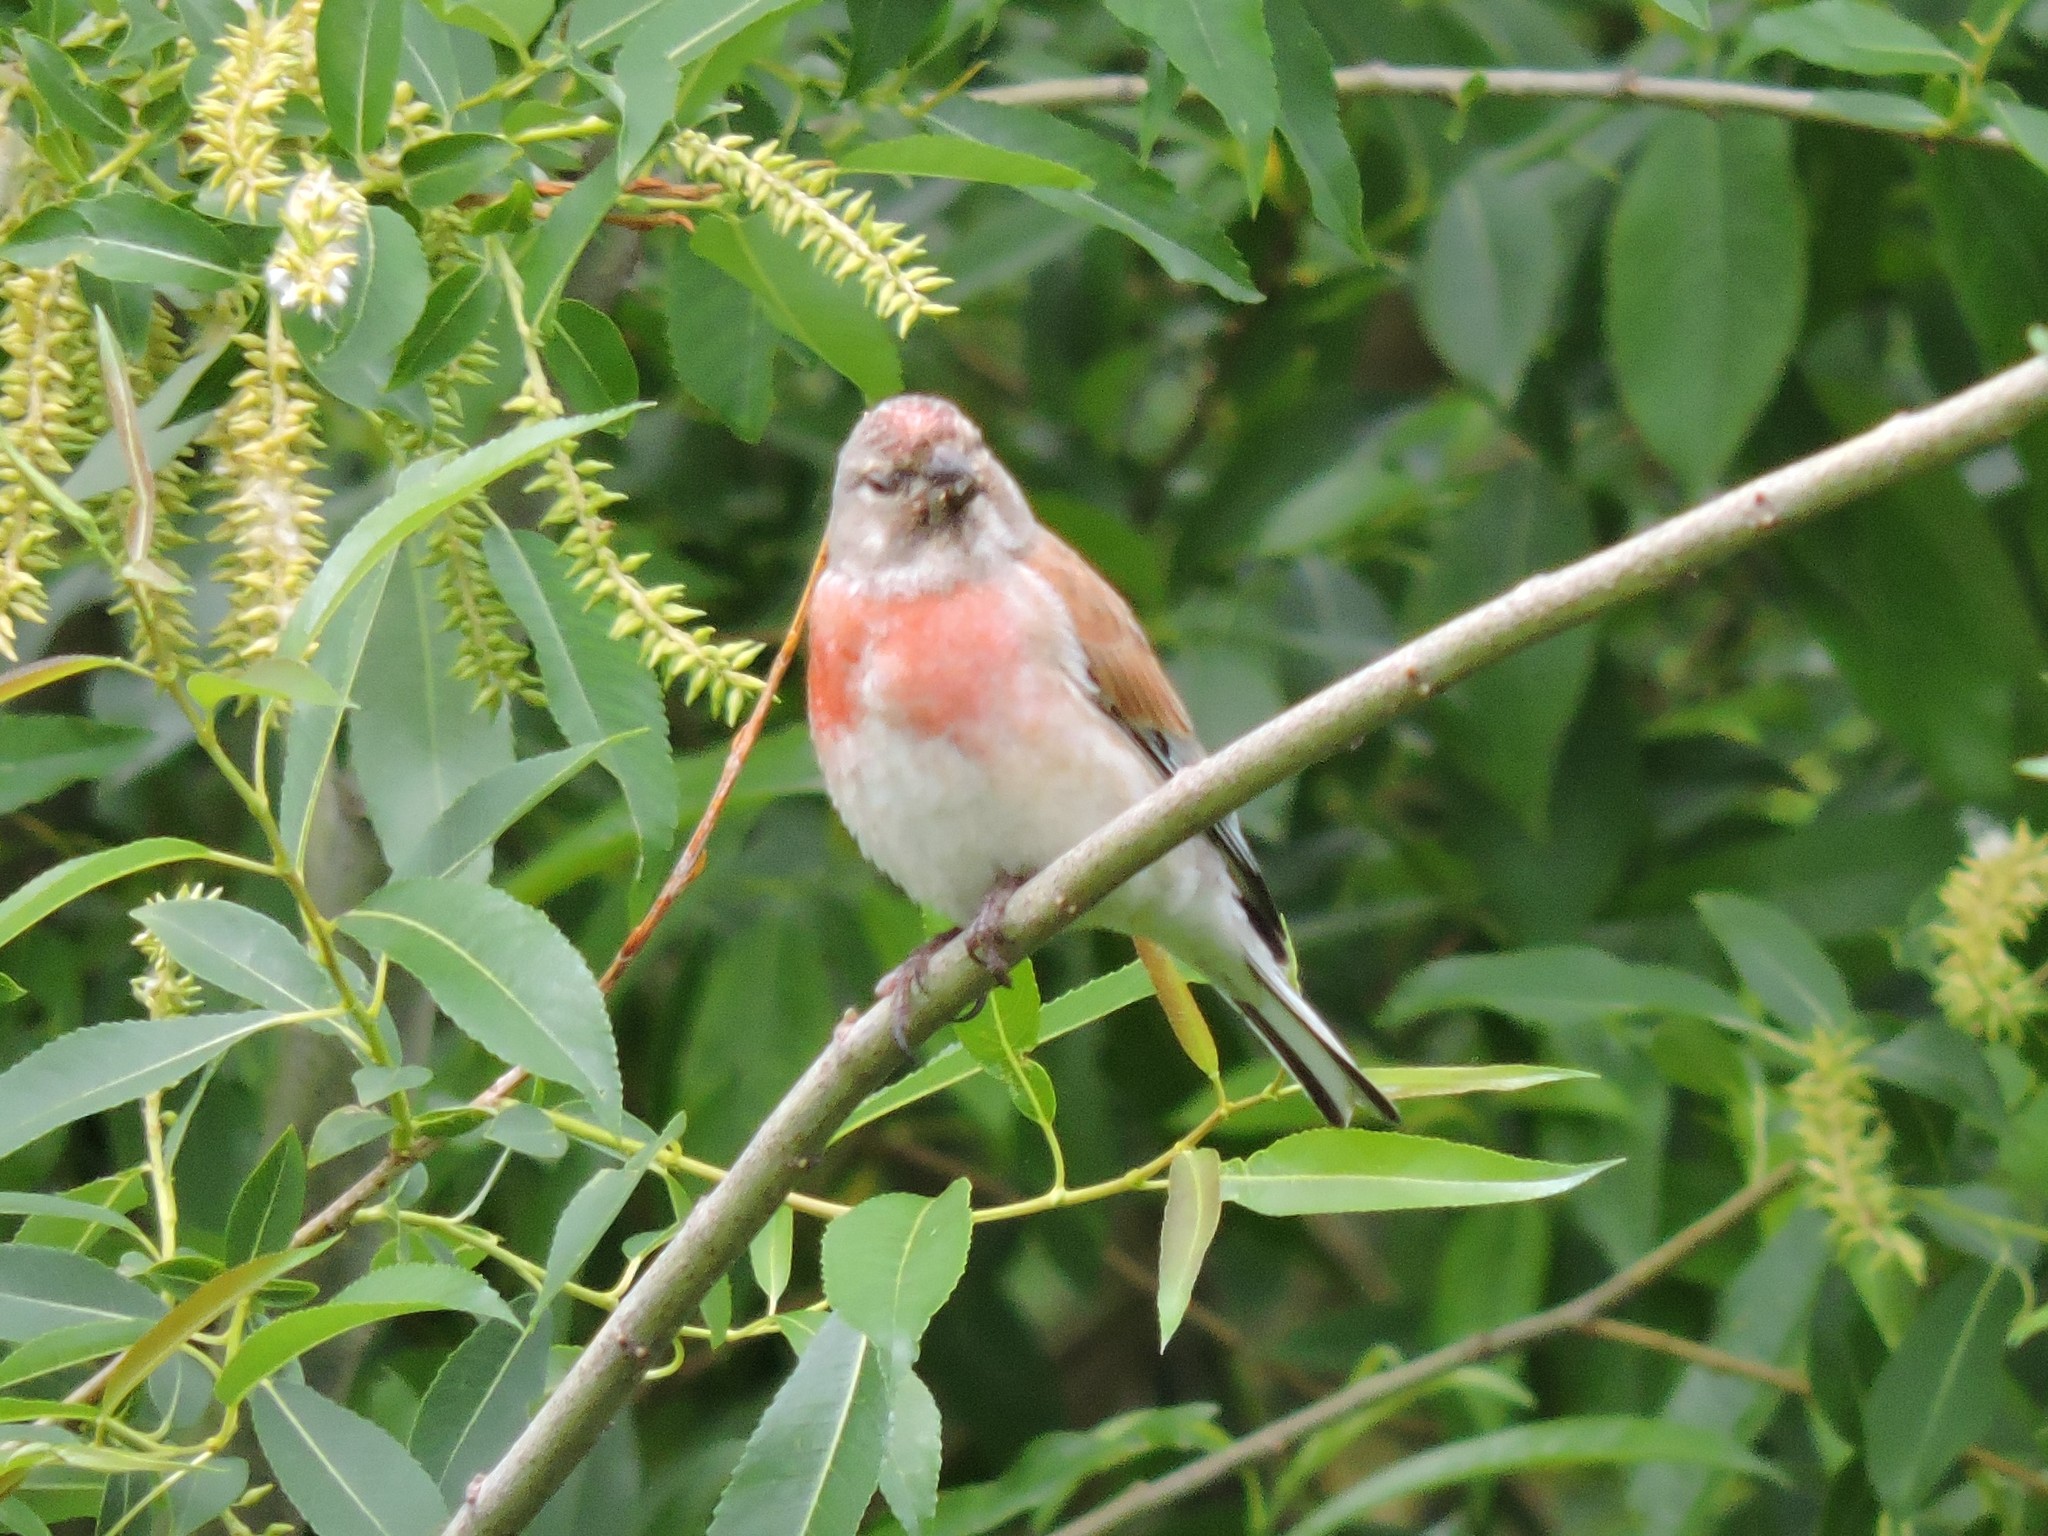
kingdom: Animalia
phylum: Chordata
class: Aves
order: Passeriformes
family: Fringillidae
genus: Linaria
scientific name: Linaria cannabina
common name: Common linnet
